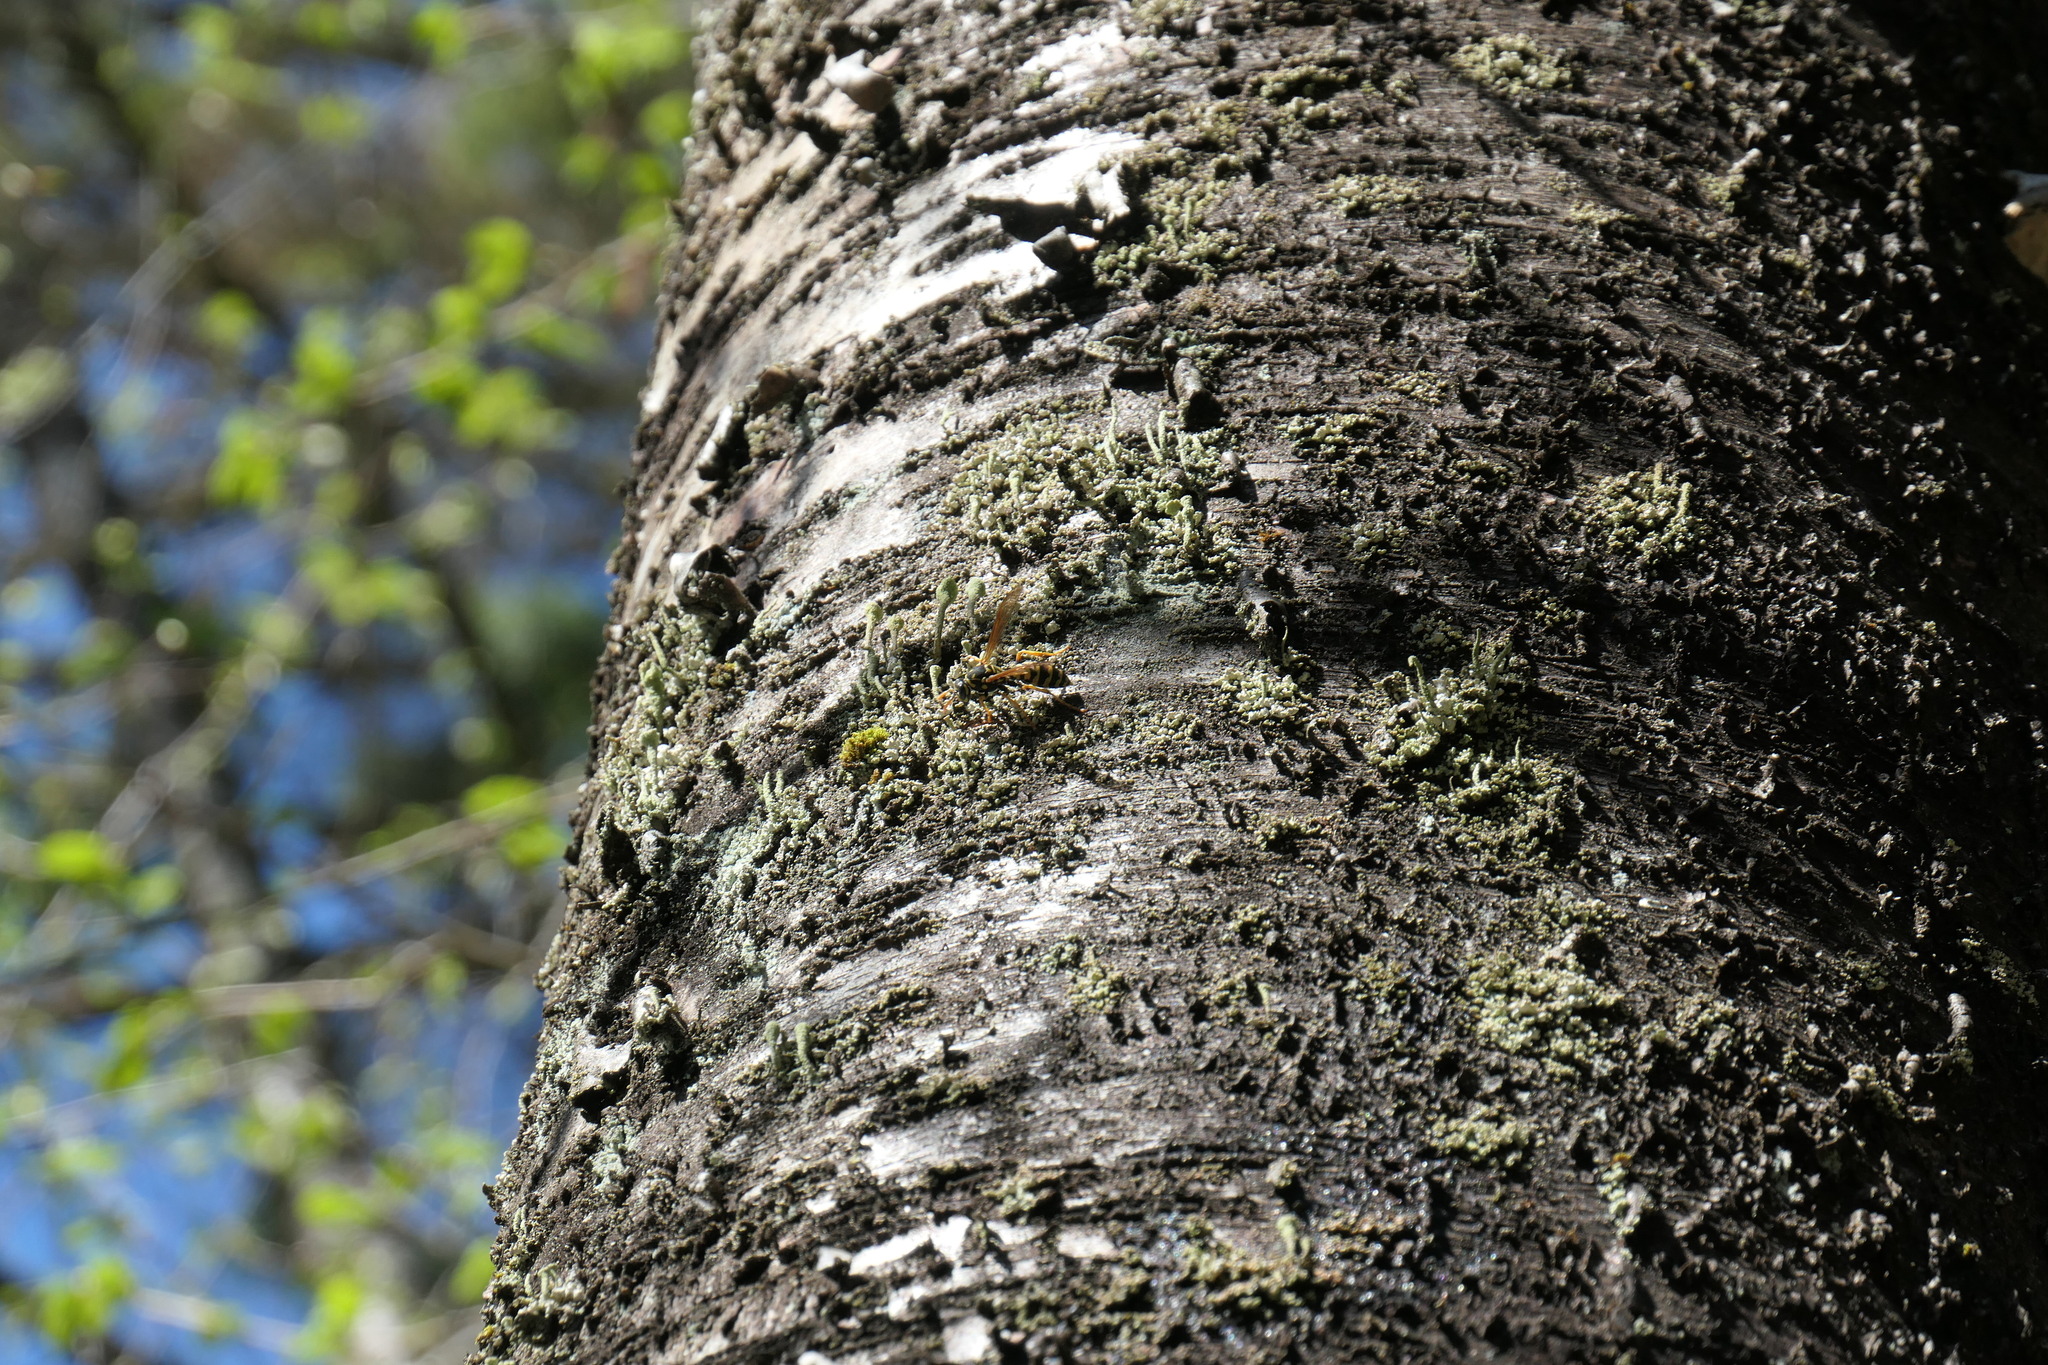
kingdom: Animalia
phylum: Arthropoda
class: Insecta
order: Hymenoptera
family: Eumenidae
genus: Polistes
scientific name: Polistes dominula
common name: Paper wasp
